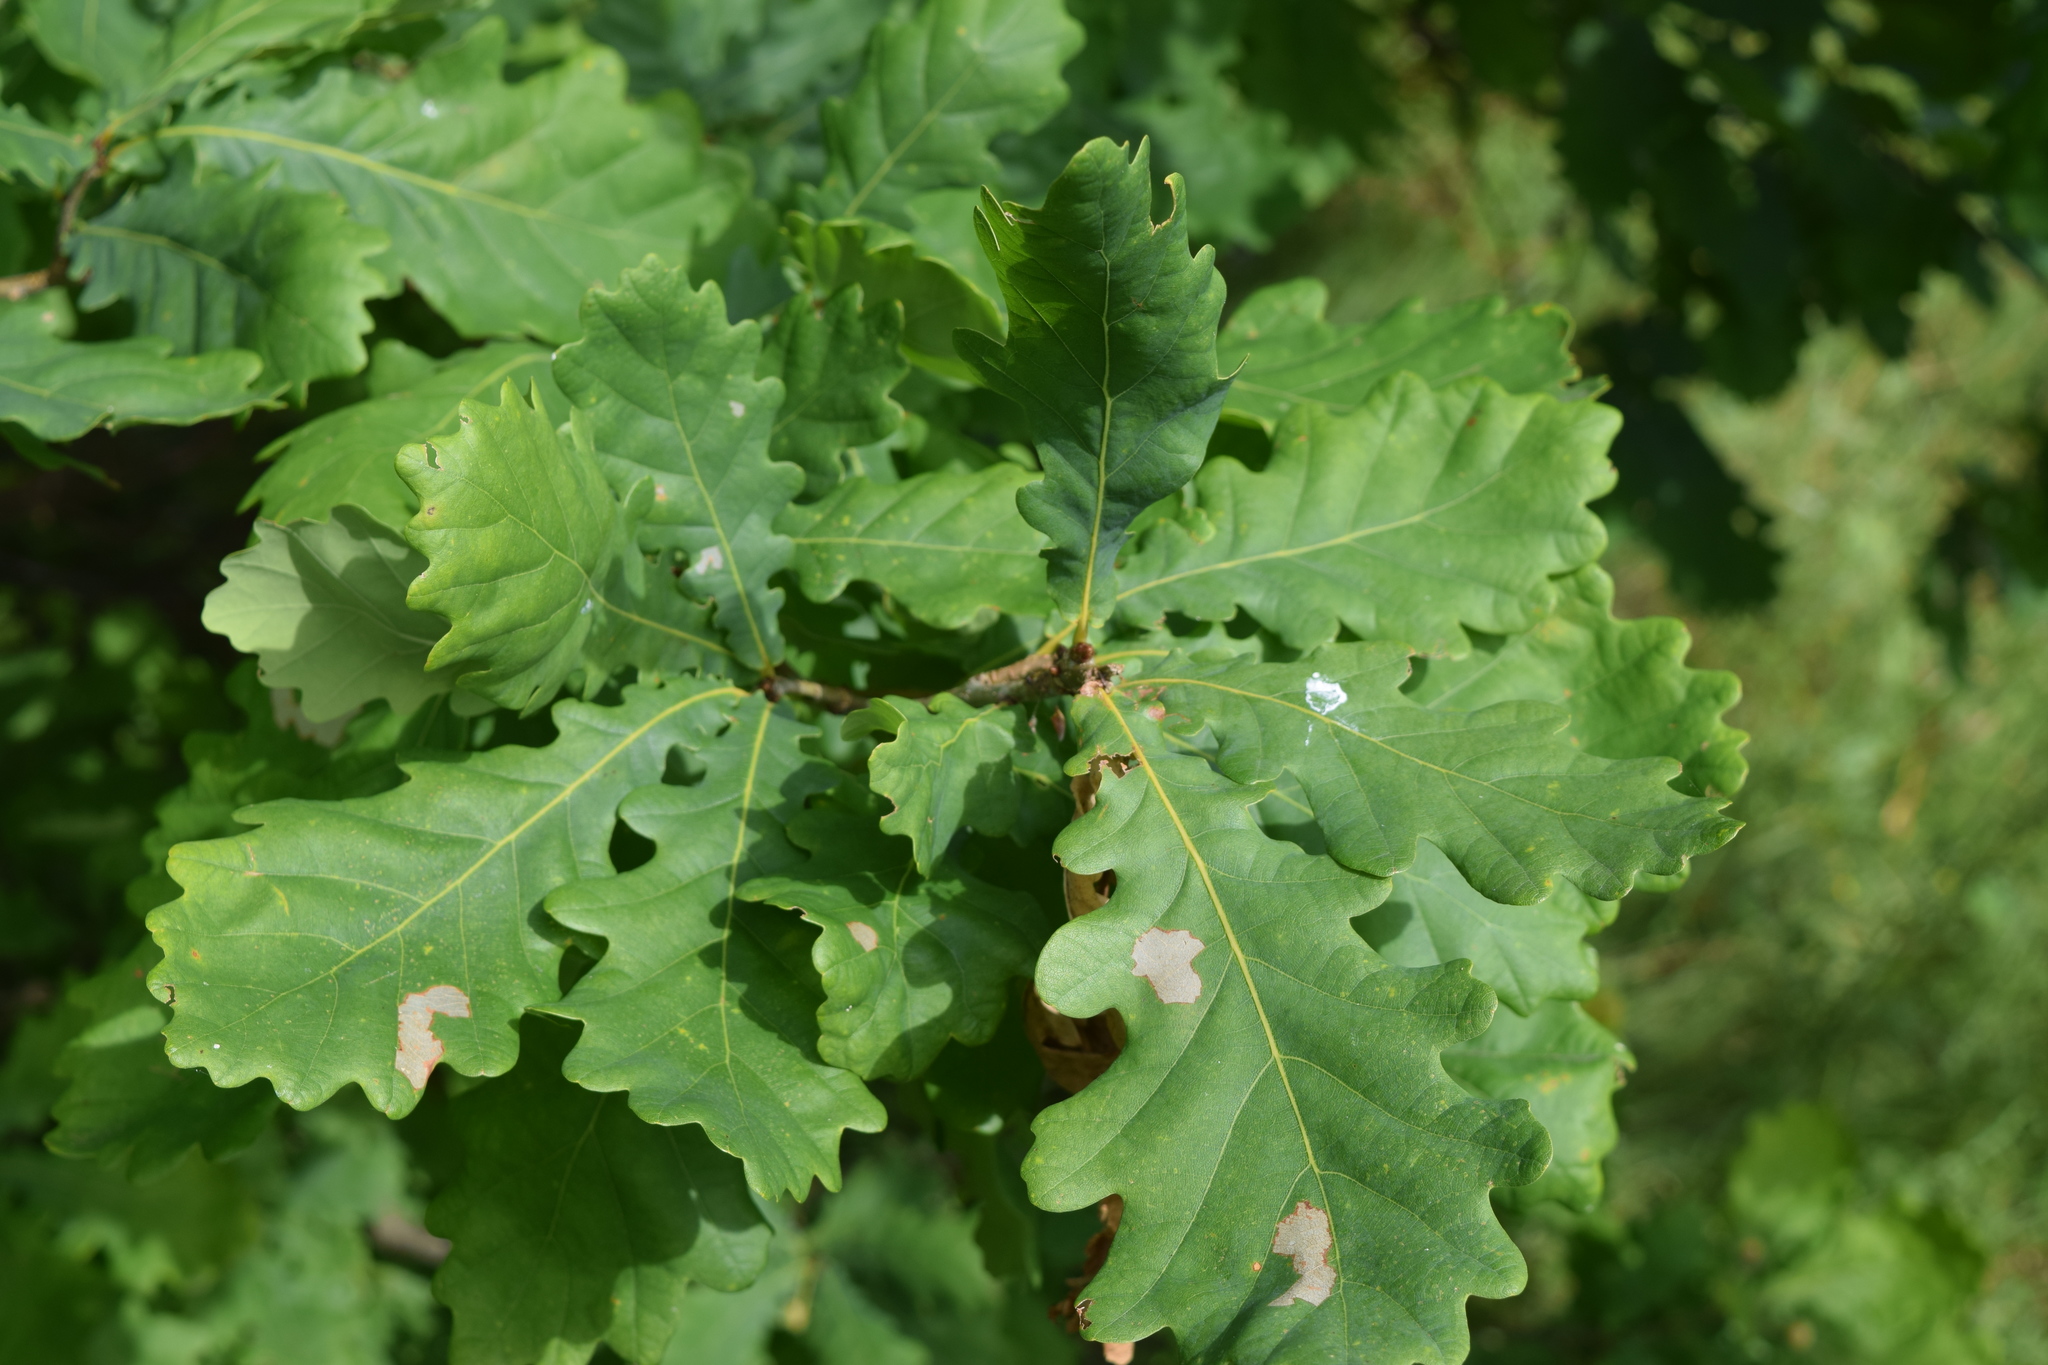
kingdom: Plantae
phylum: Tracheophyta
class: Magnoliopsida
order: Fagales
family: Fagaceae
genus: Quercus
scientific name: Quercus robur
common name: Pedunculate oak
